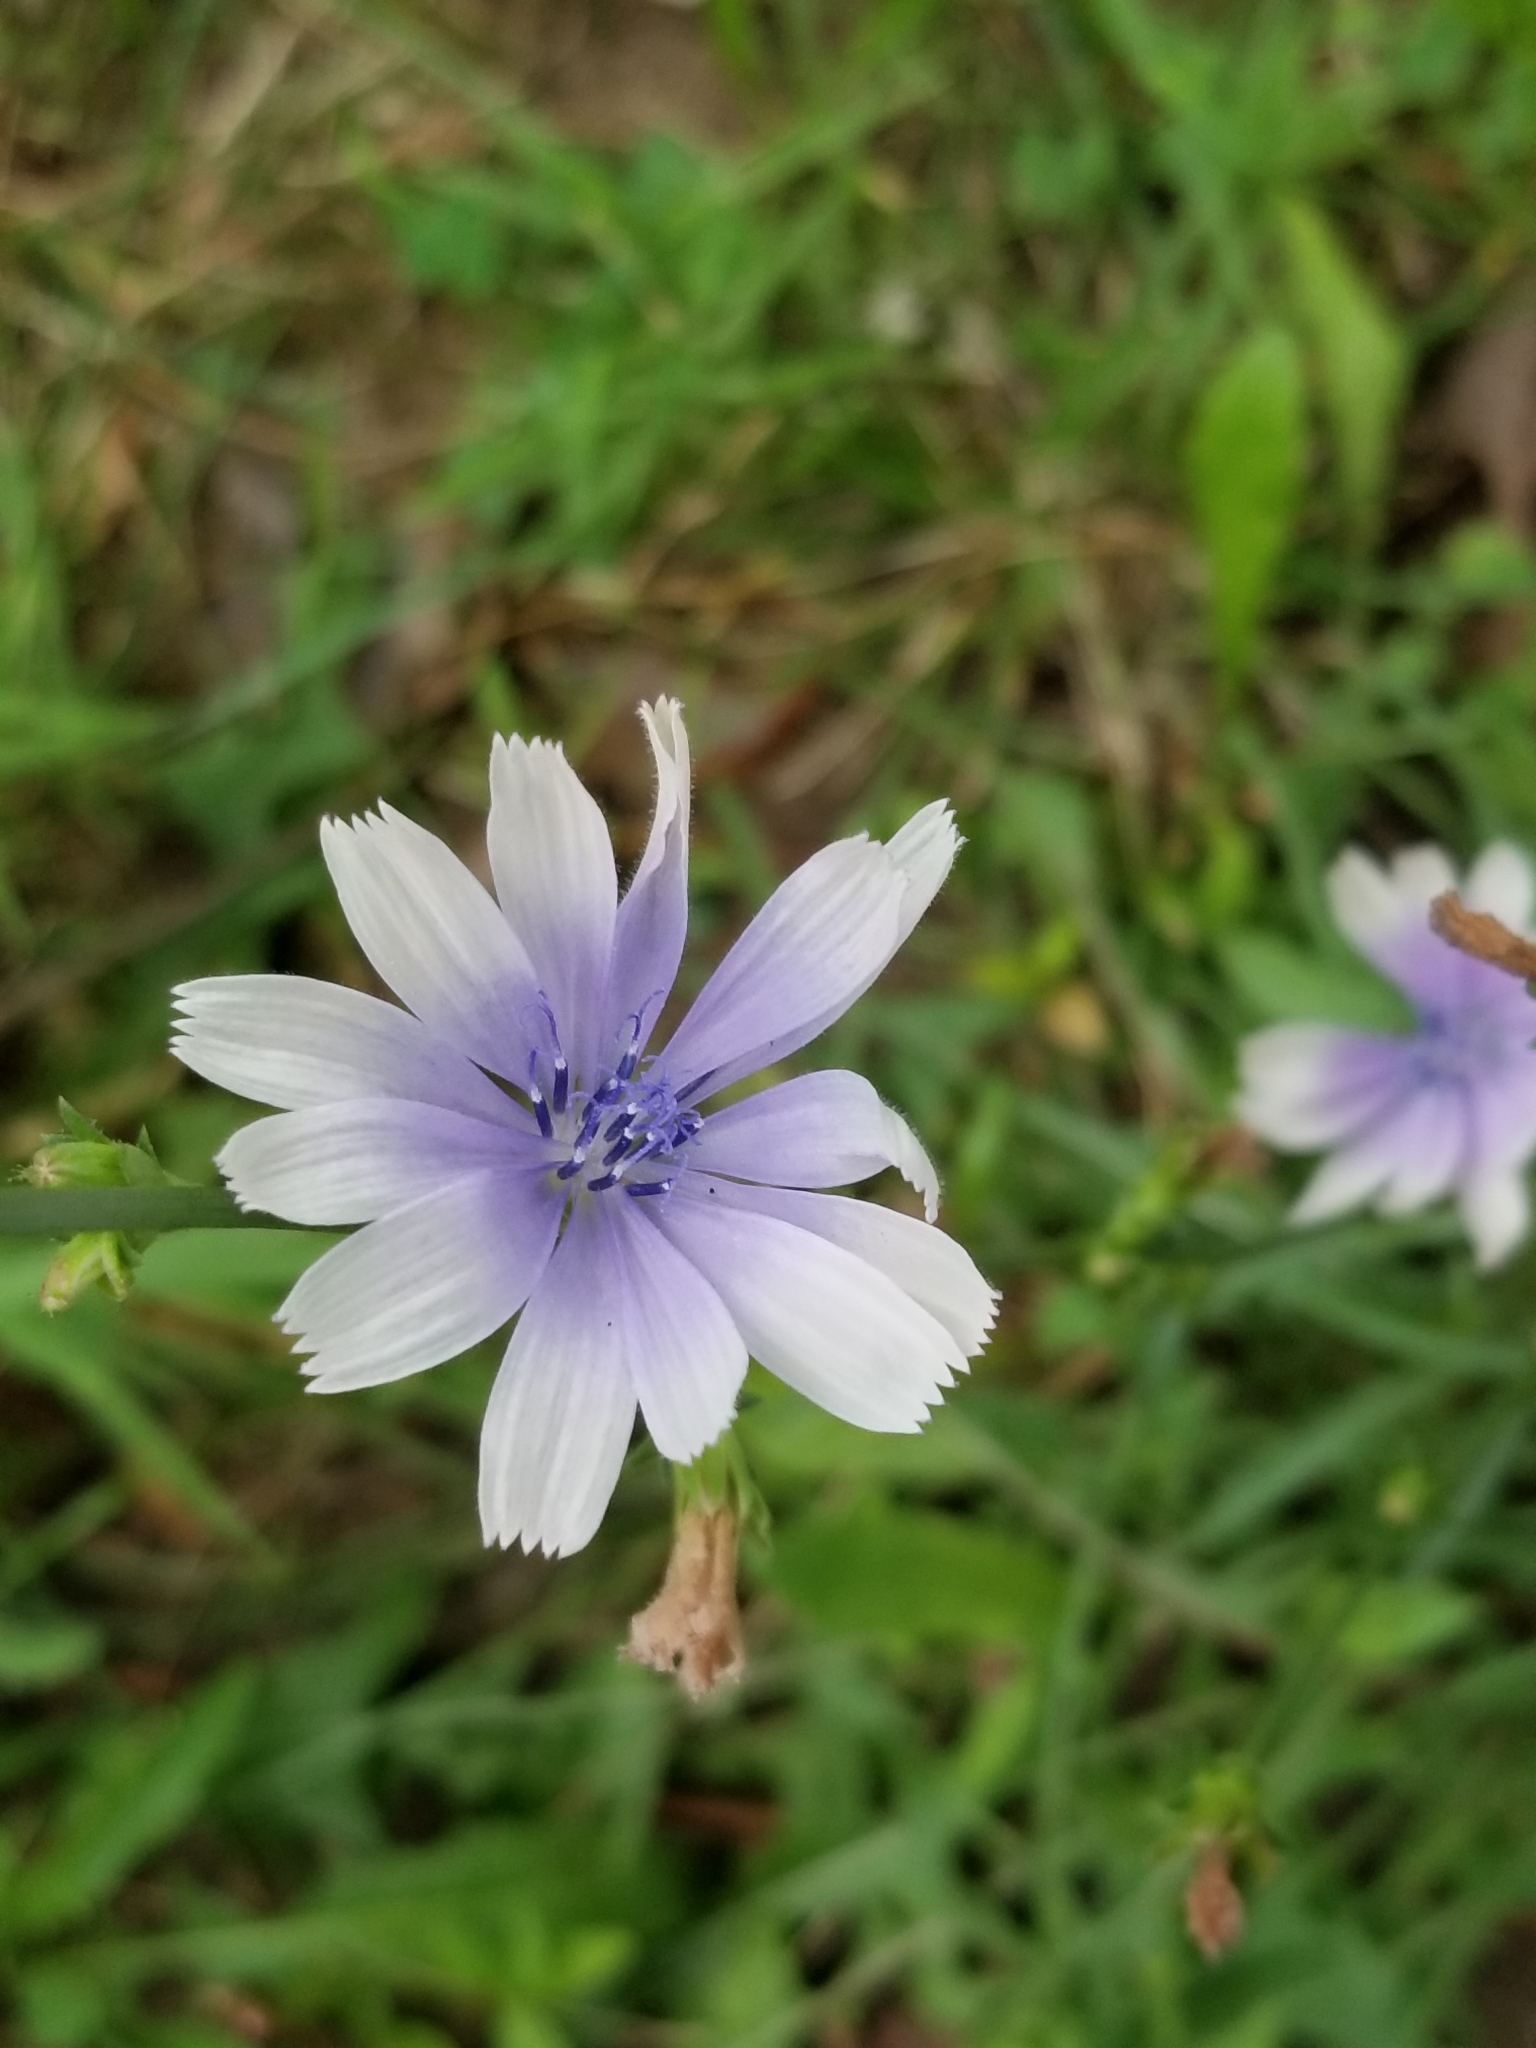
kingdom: Plantae
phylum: Tracheophyta
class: Magnoliopsida
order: Asterales
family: Asteraceae
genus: Cichorium
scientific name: Cichorium intybus
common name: Chicory
